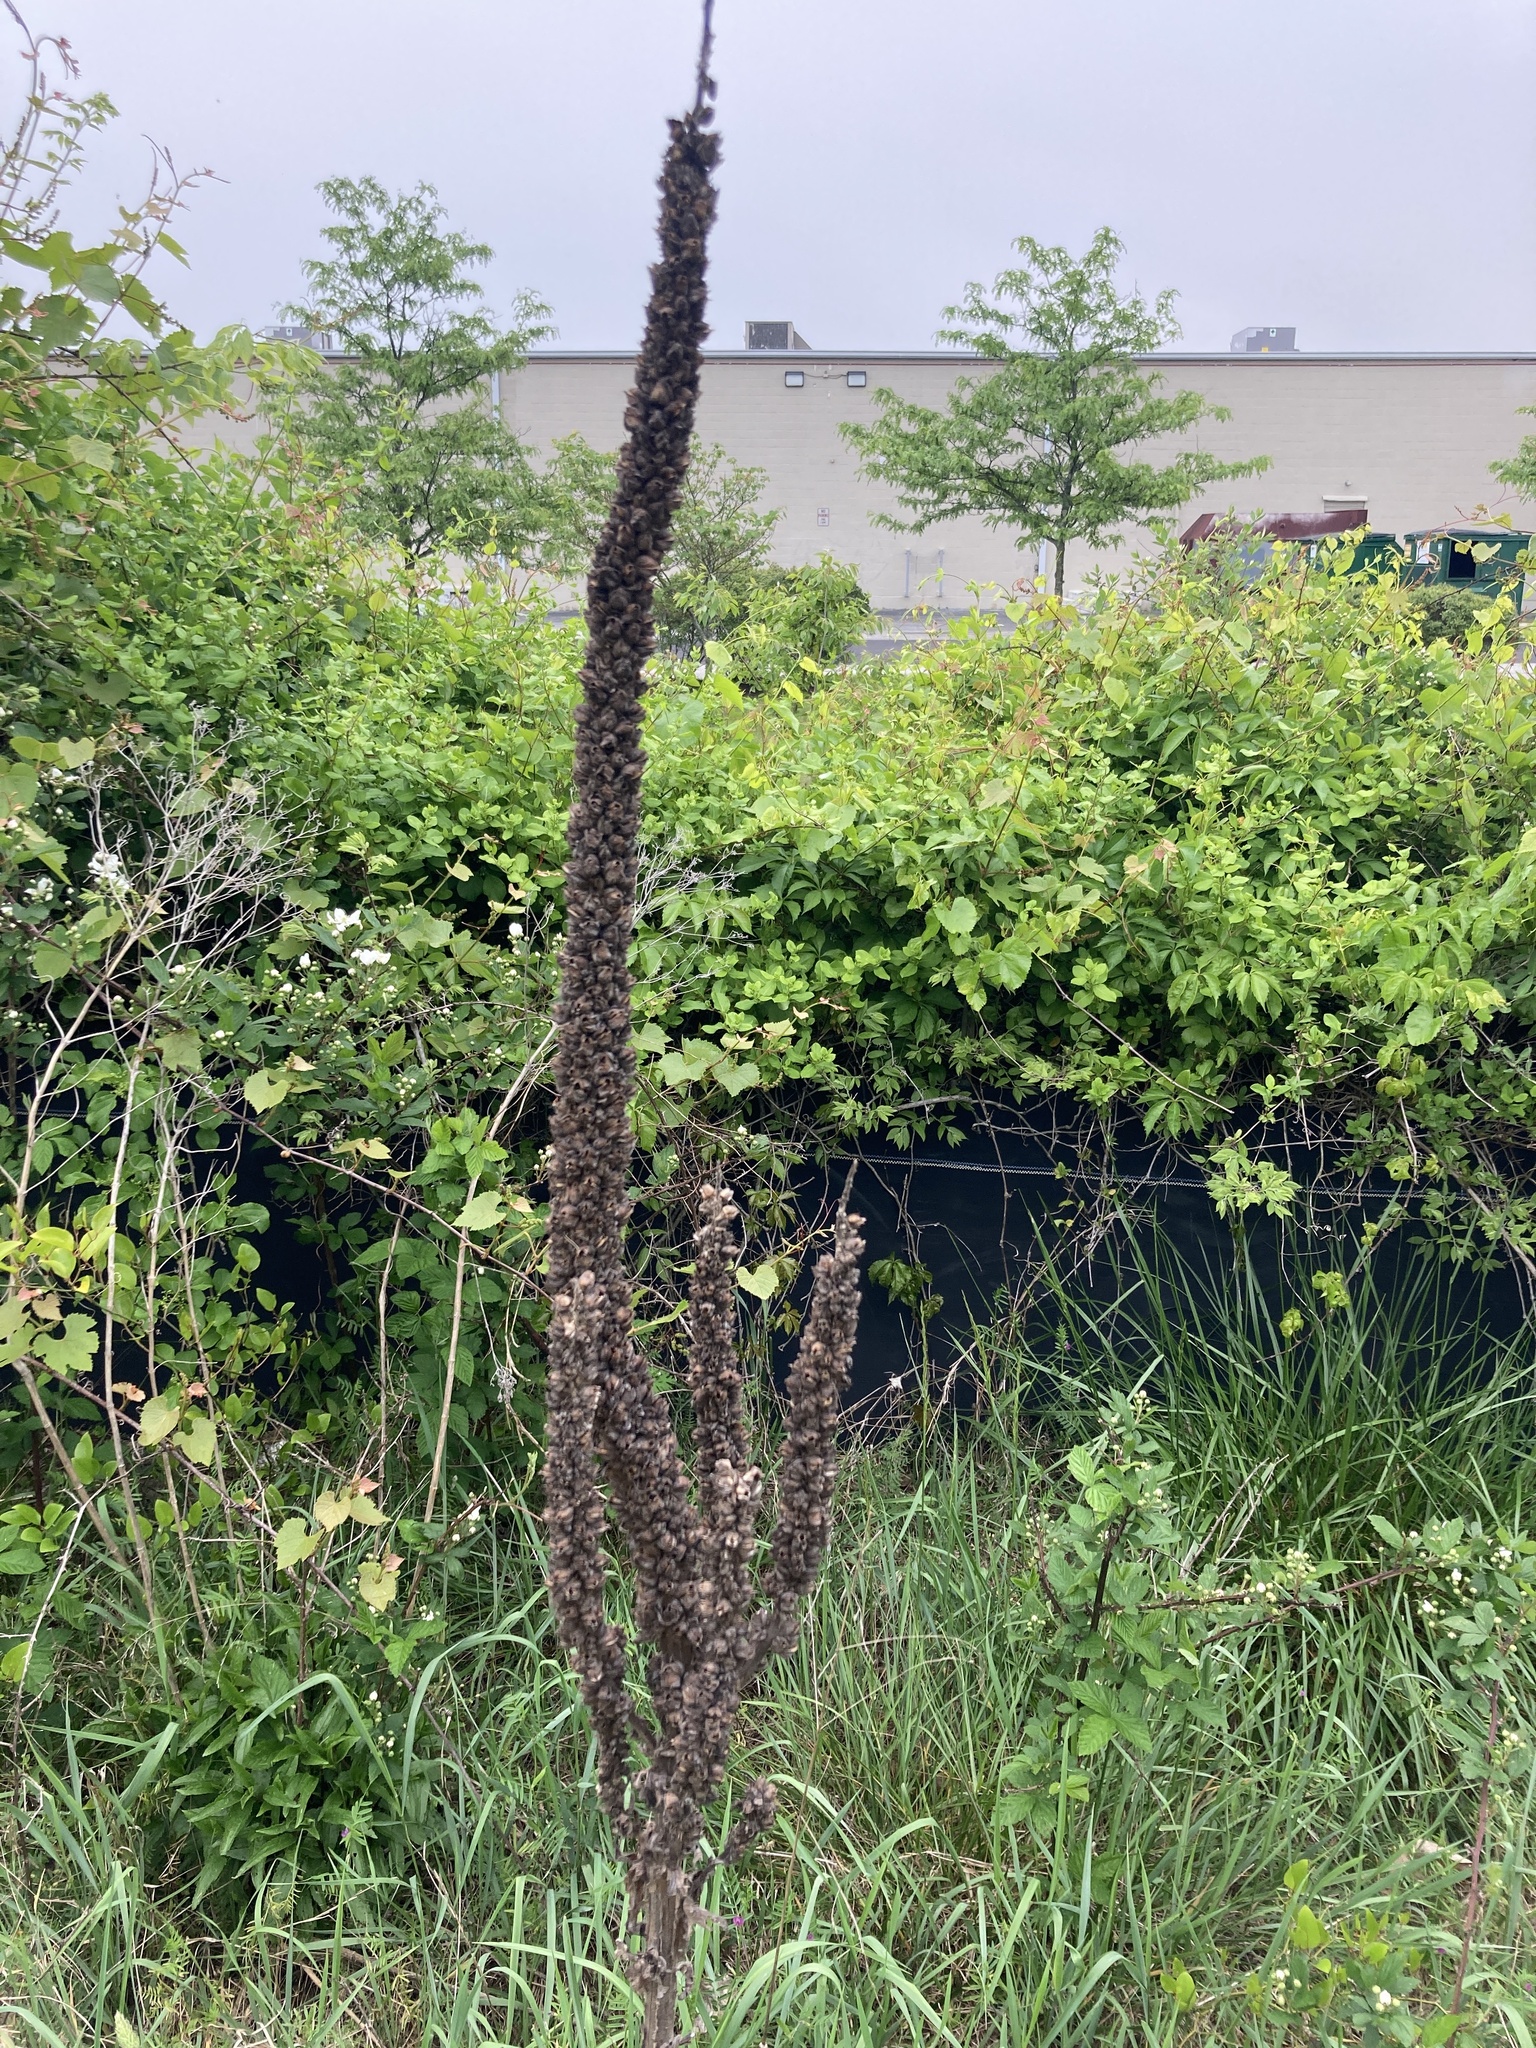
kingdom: Plantae
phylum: Tracheophyta
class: Magnoliopsida
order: Lamiales
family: Scrophulariaceae
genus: Verbascum
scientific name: Verbascum thapsus
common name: Common mullein
